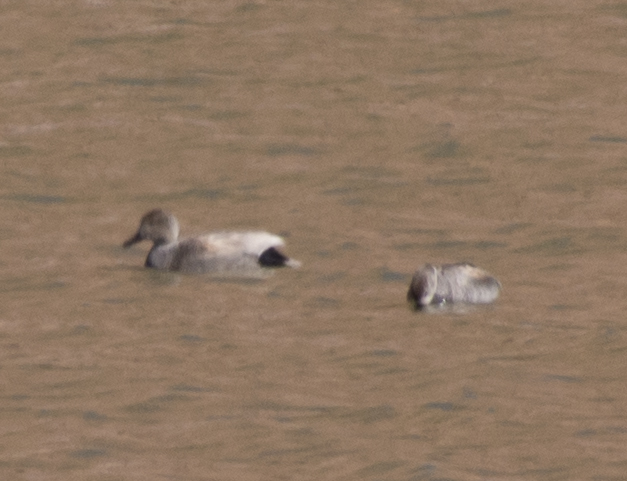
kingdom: Animalia
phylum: Chordata
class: Aves
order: Anseriformes
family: Anatidae
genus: Mareca
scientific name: Mareca strepera
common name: Gadwall
